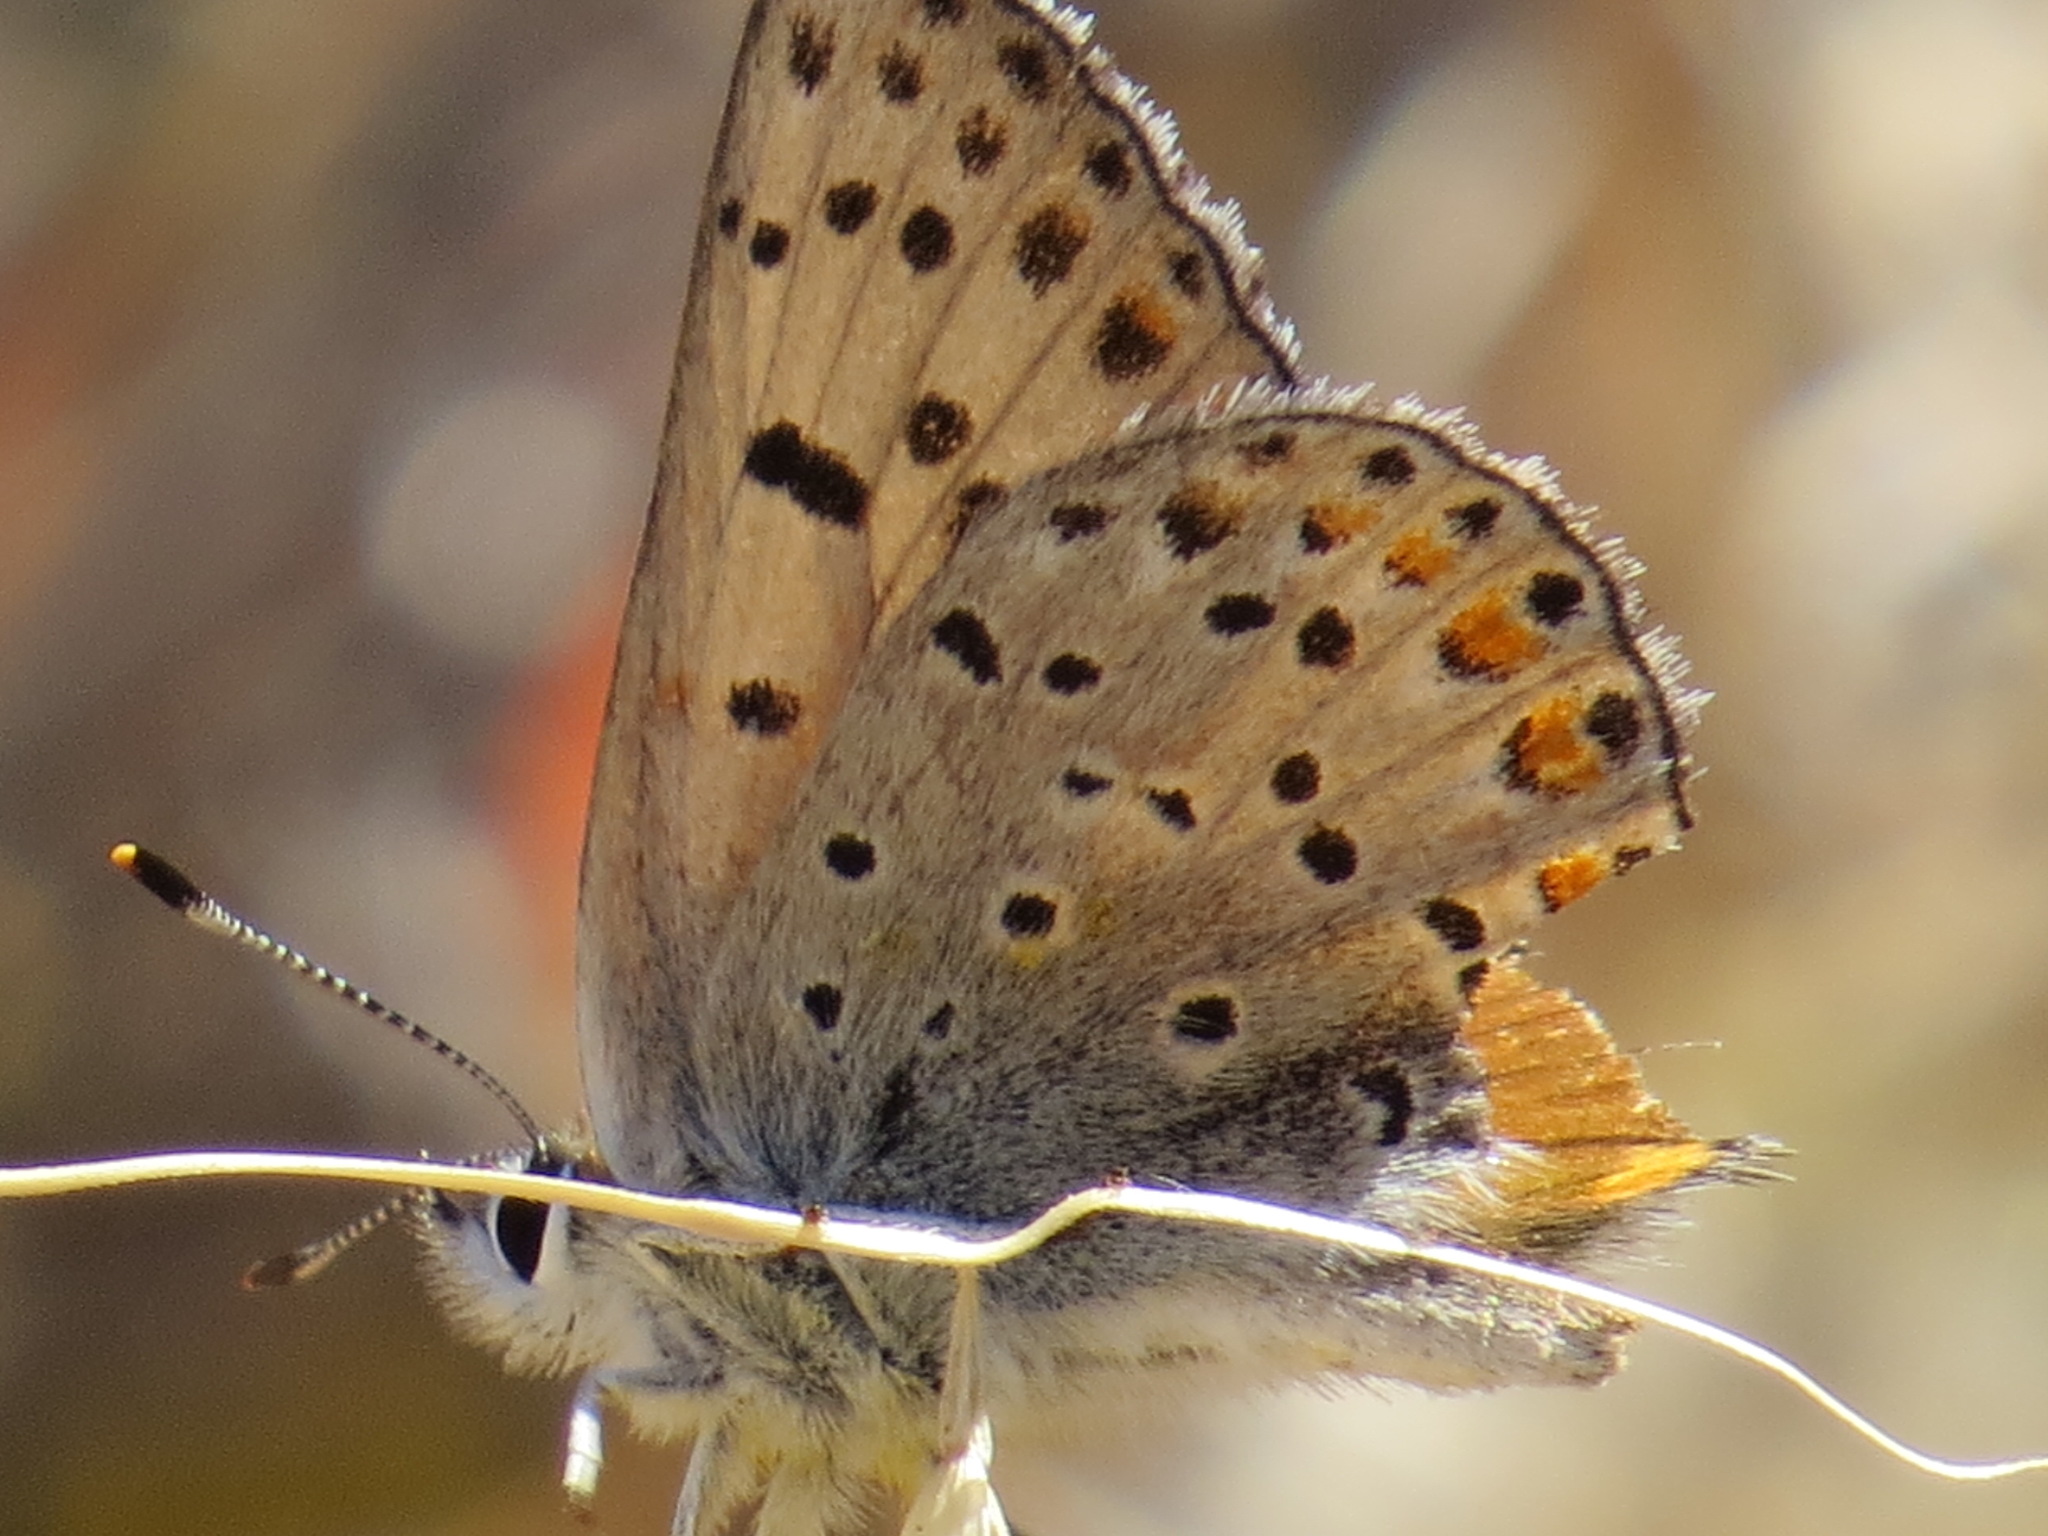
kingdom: Animalia
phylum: Arthropoda
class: Insecta
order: Lepidoptera
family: Lycaenidae
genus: Icaricia
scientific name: Icaricia acmon
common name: Acmon blue
